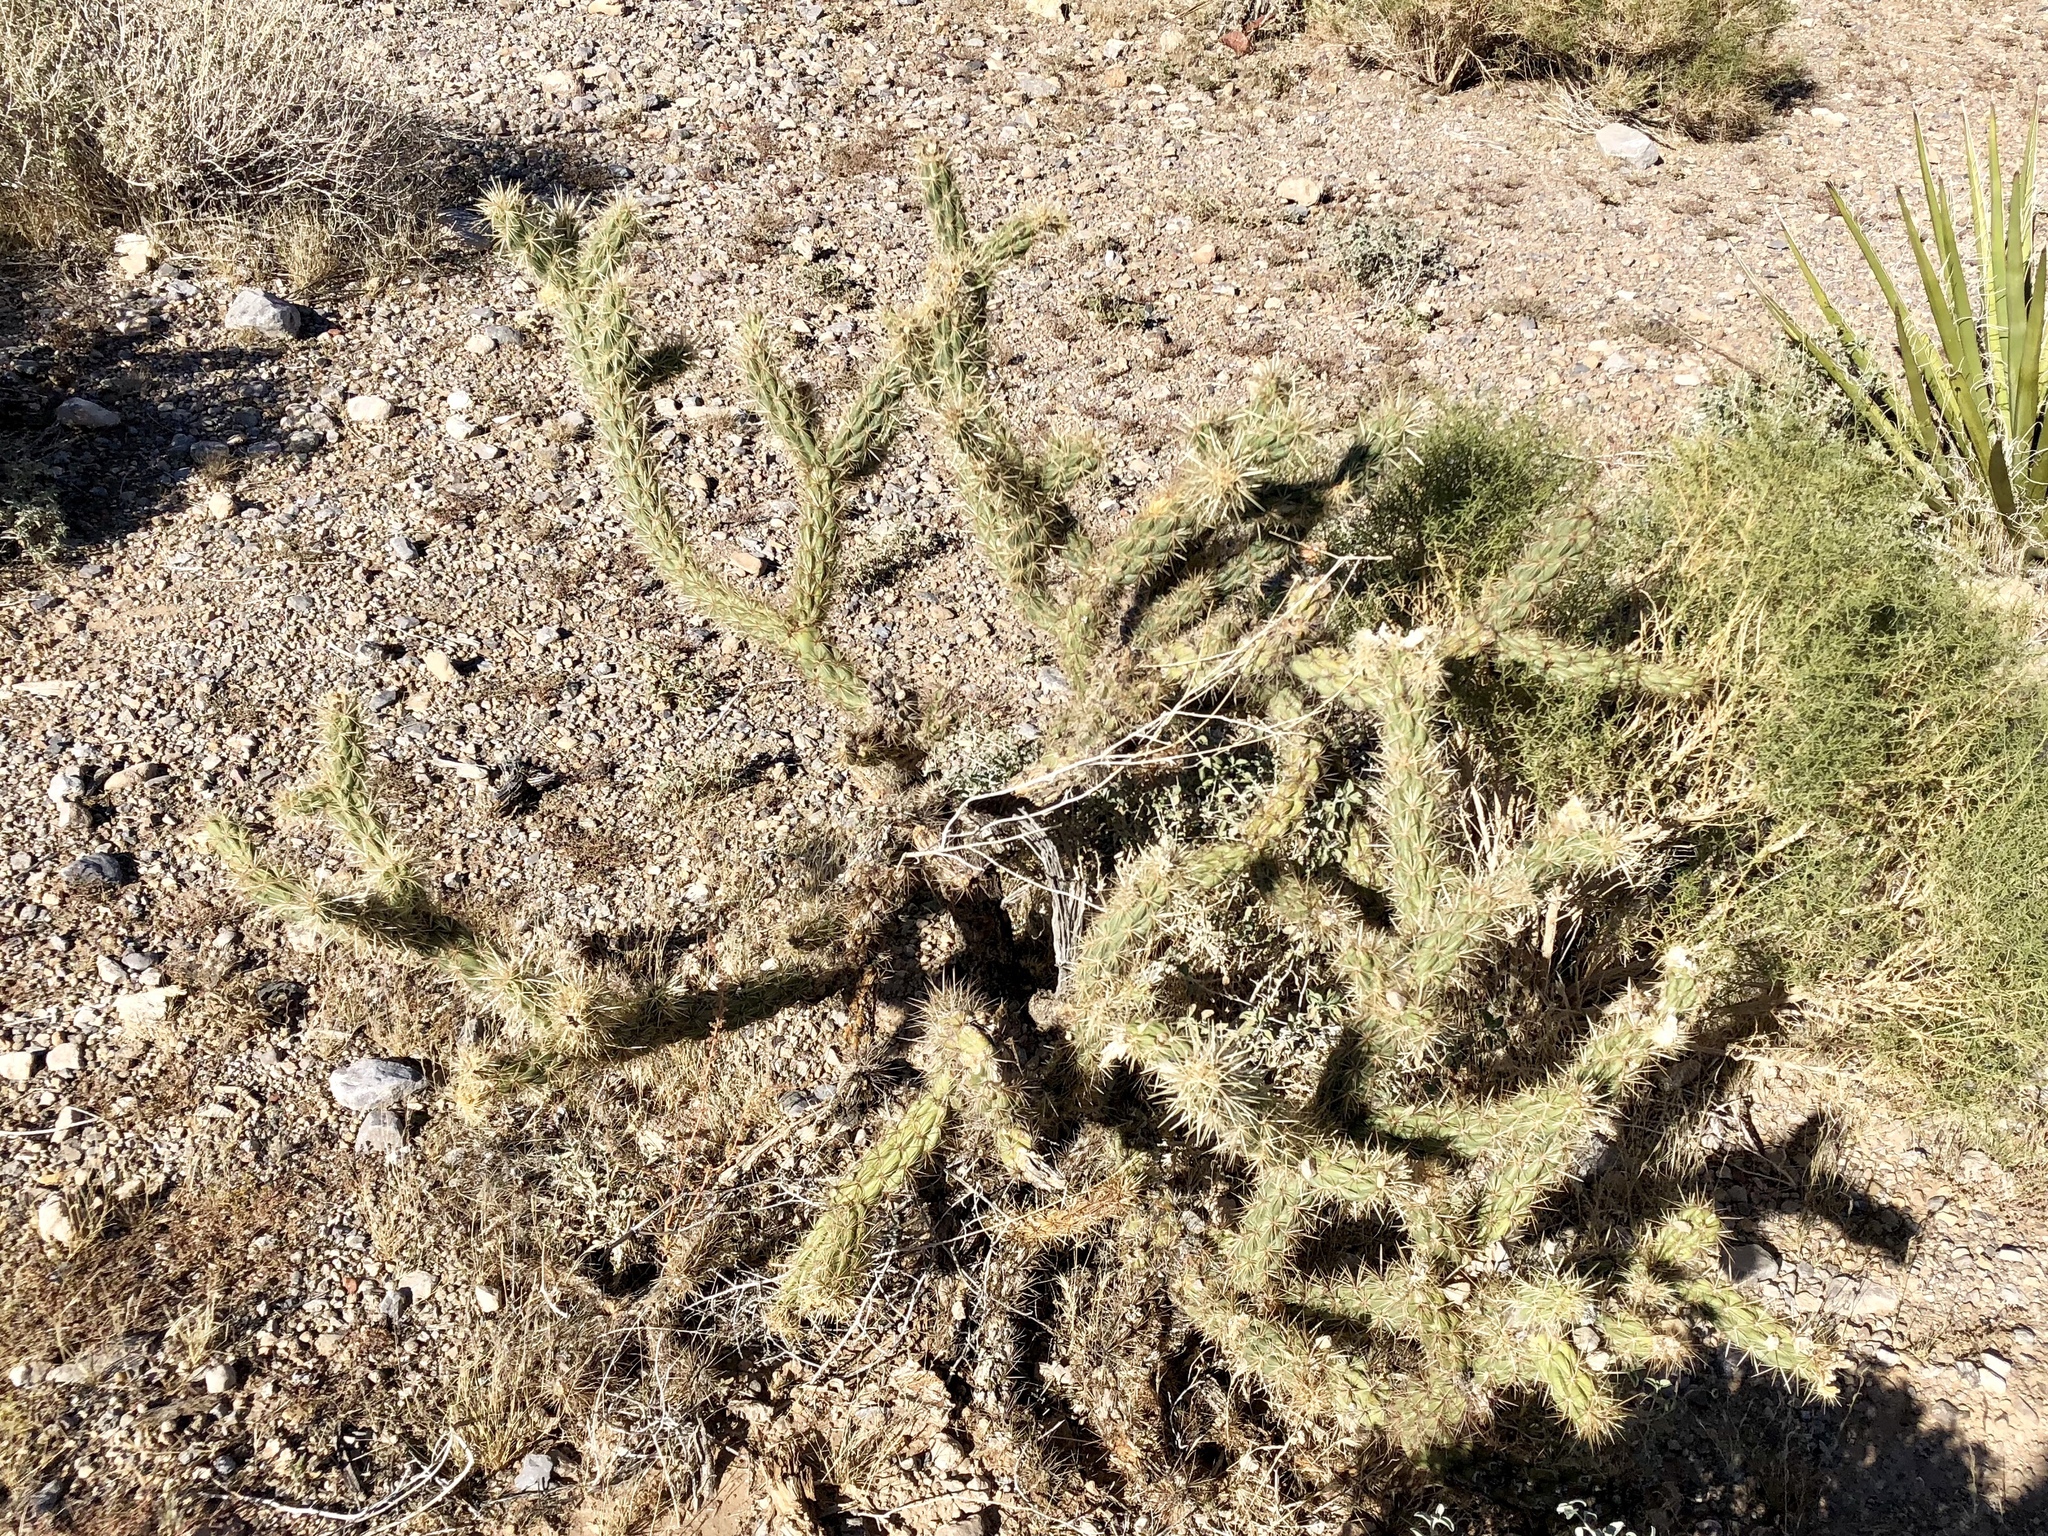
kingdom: Plantae
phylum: Tracheophyta
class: Magnoliopsida
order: Caryophyllales
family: Cactaceae
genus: Cylindropuntia
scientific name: Cylindropuntia acanthocarpa
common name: Buckhorn cholla
